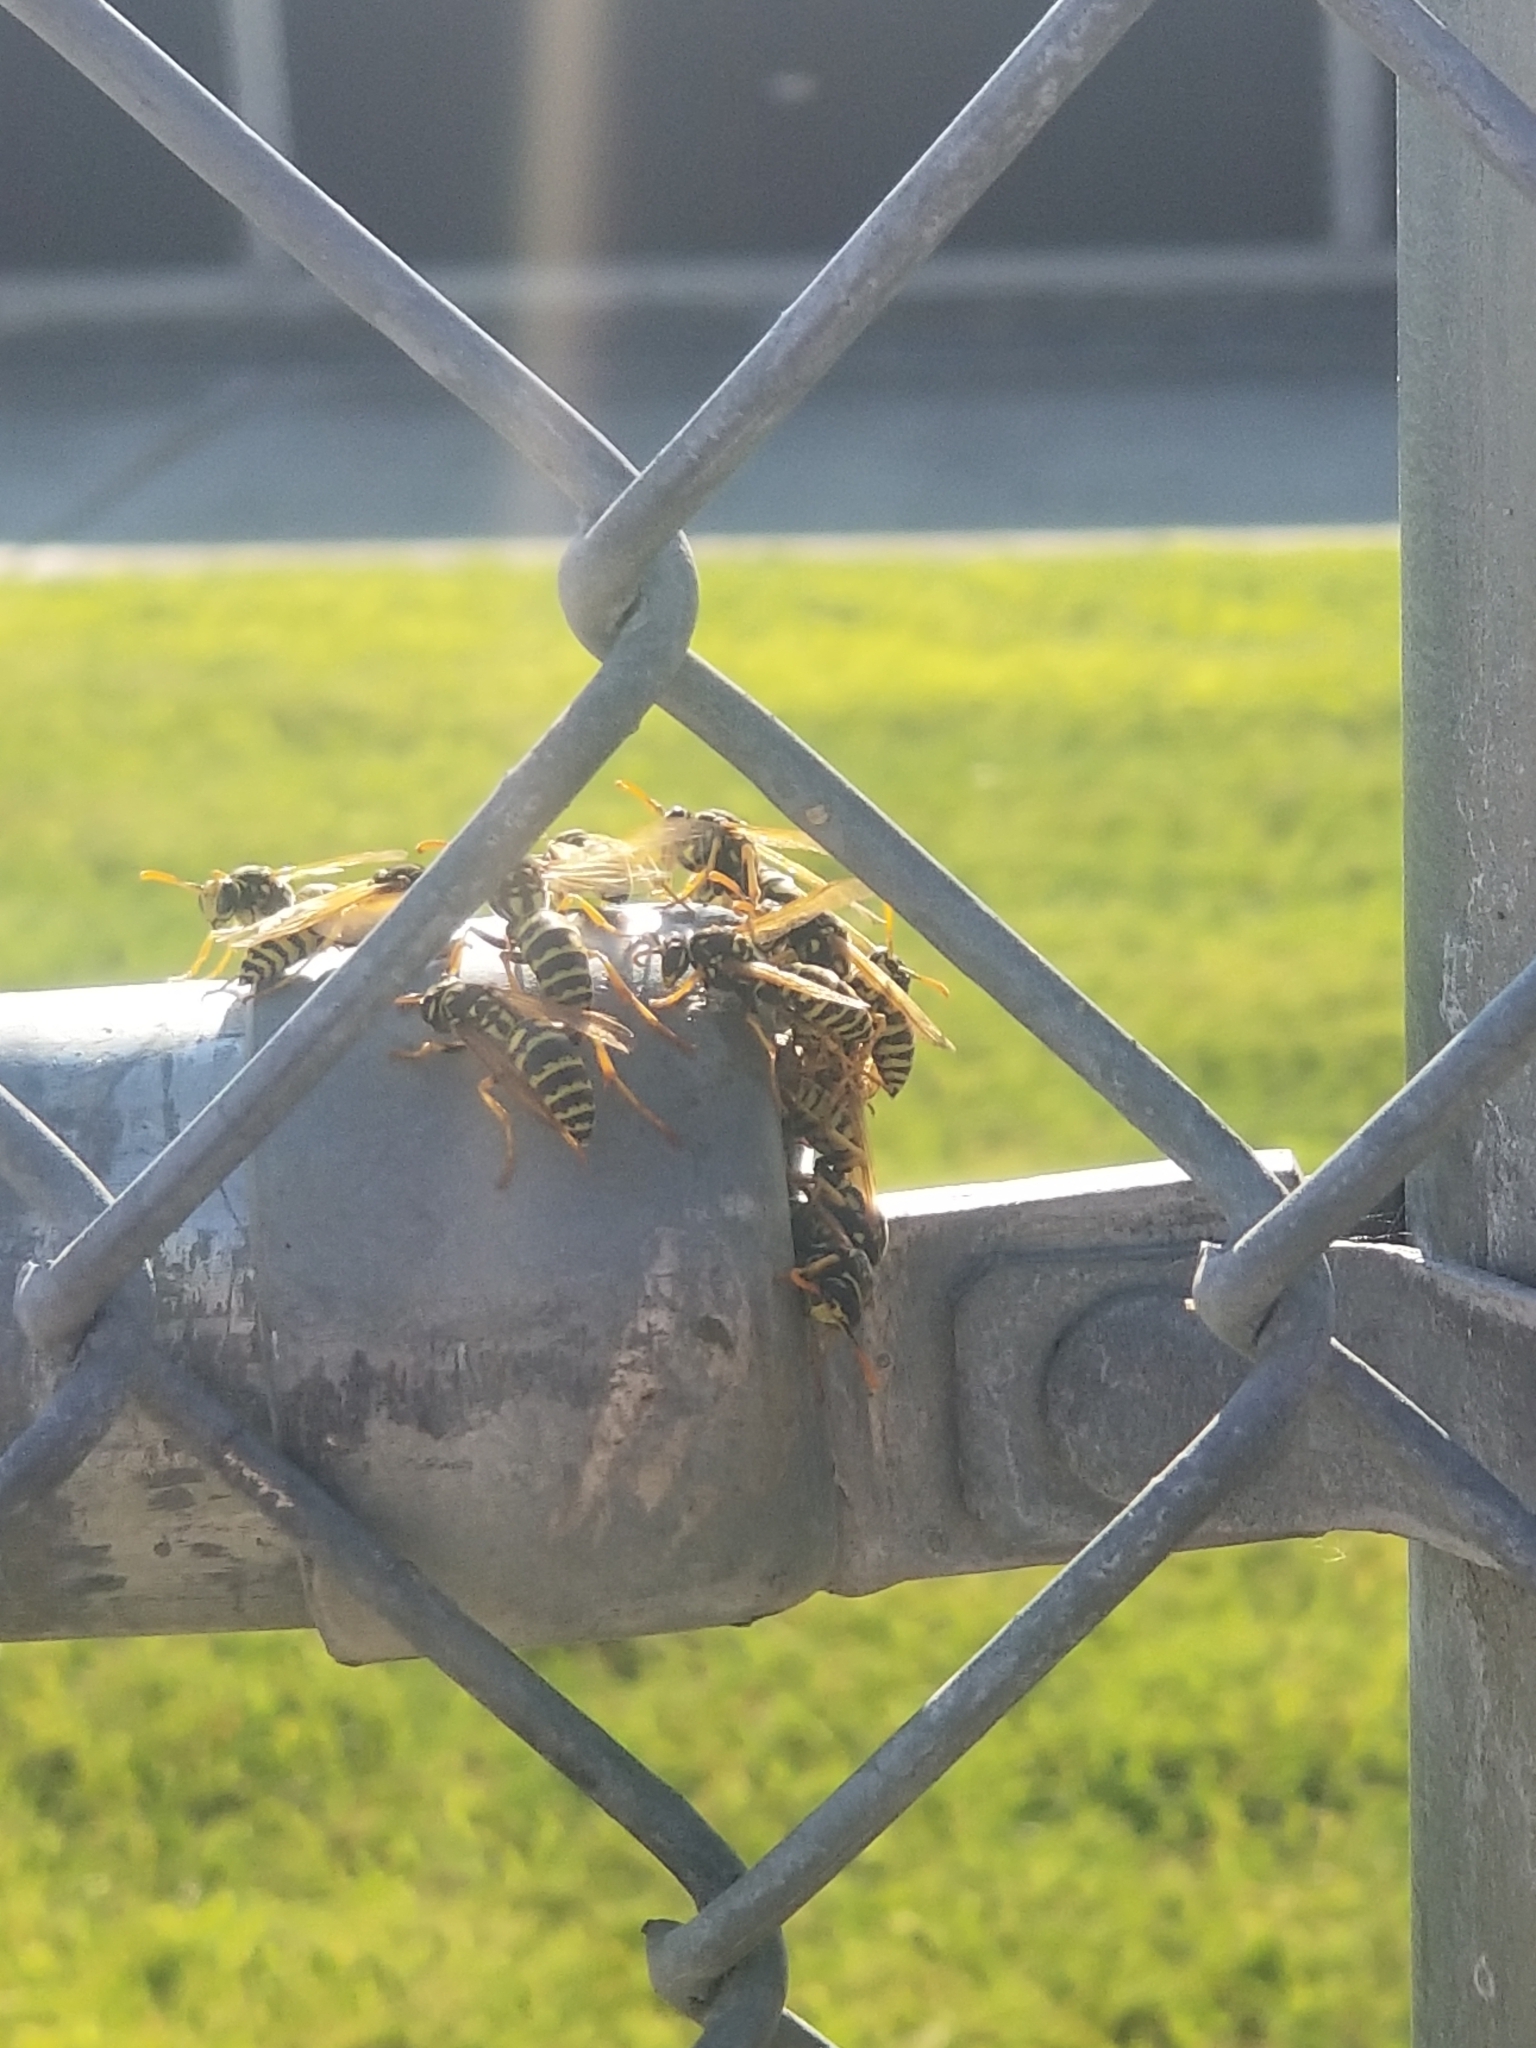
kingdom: Animalia
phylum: Arthropoda
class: Insecta
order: Hymenoptera
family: Eumenidae
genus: Polistes
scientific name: Polistes dominula
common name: Paper wasp
